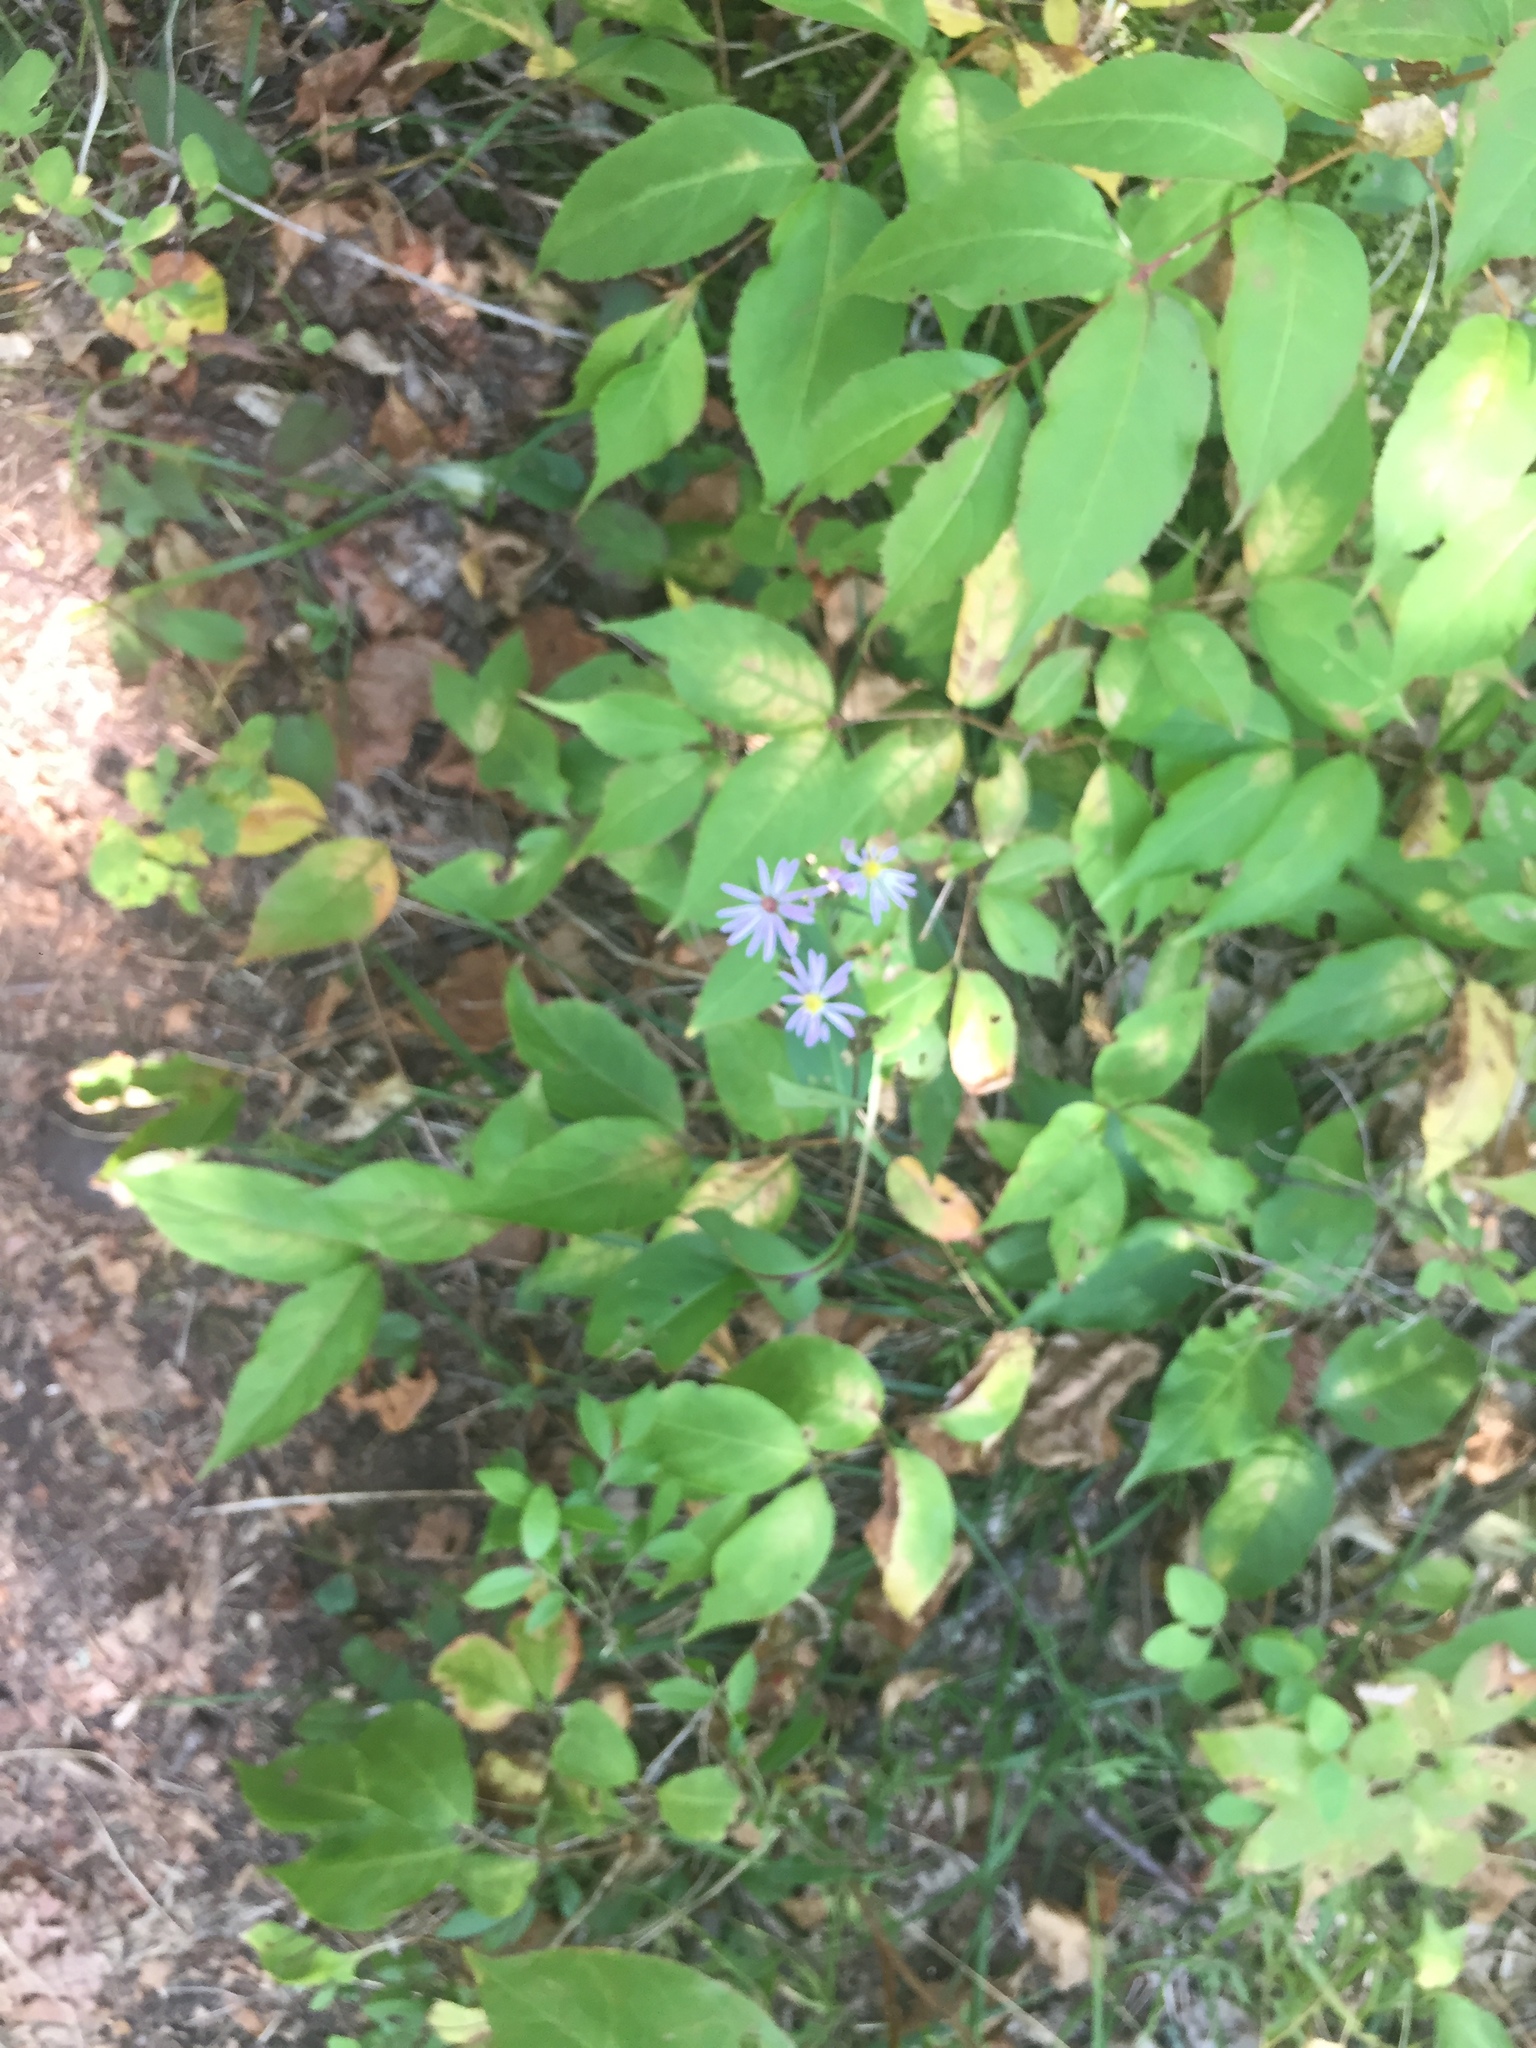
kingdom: Plantae
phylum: Tracheophyta
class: Magnoliopsida
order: Asterales
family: Asteraceae
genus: Symphyotrichum
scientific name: Symphyotrichum laeve
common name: Glaucous aster
